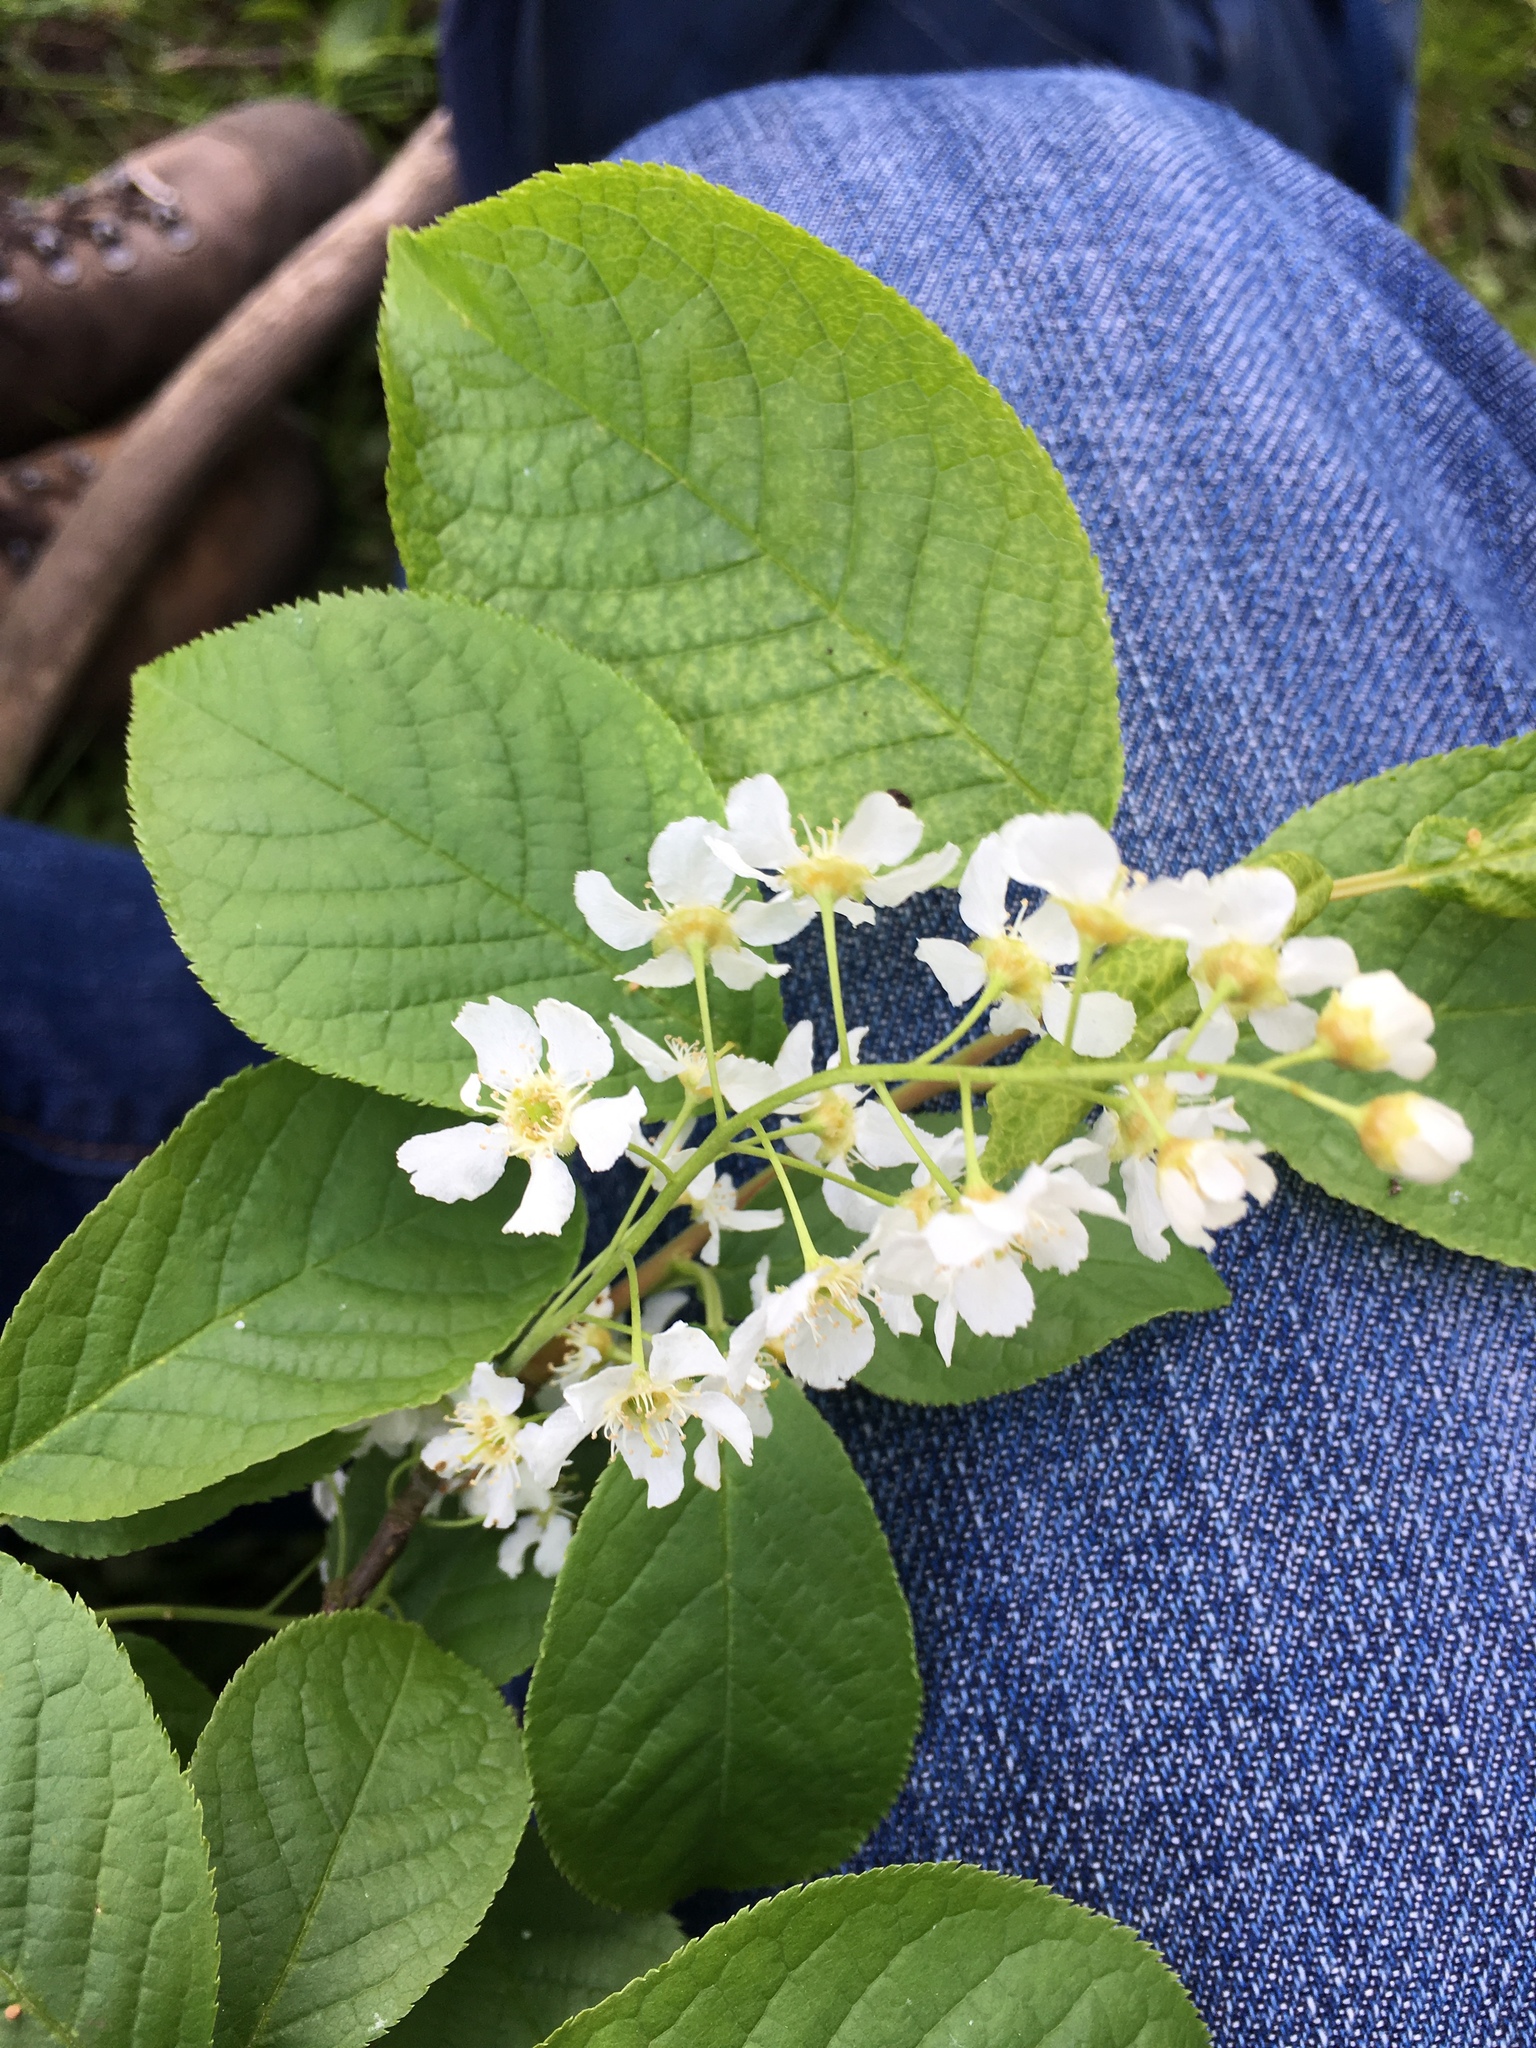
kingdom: Plantae
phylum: Tracheophyta
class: Magnoliopsida
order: Rosales
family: Rosaceae
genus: Prunus
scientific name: Prunus padus
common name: Bird cherry
